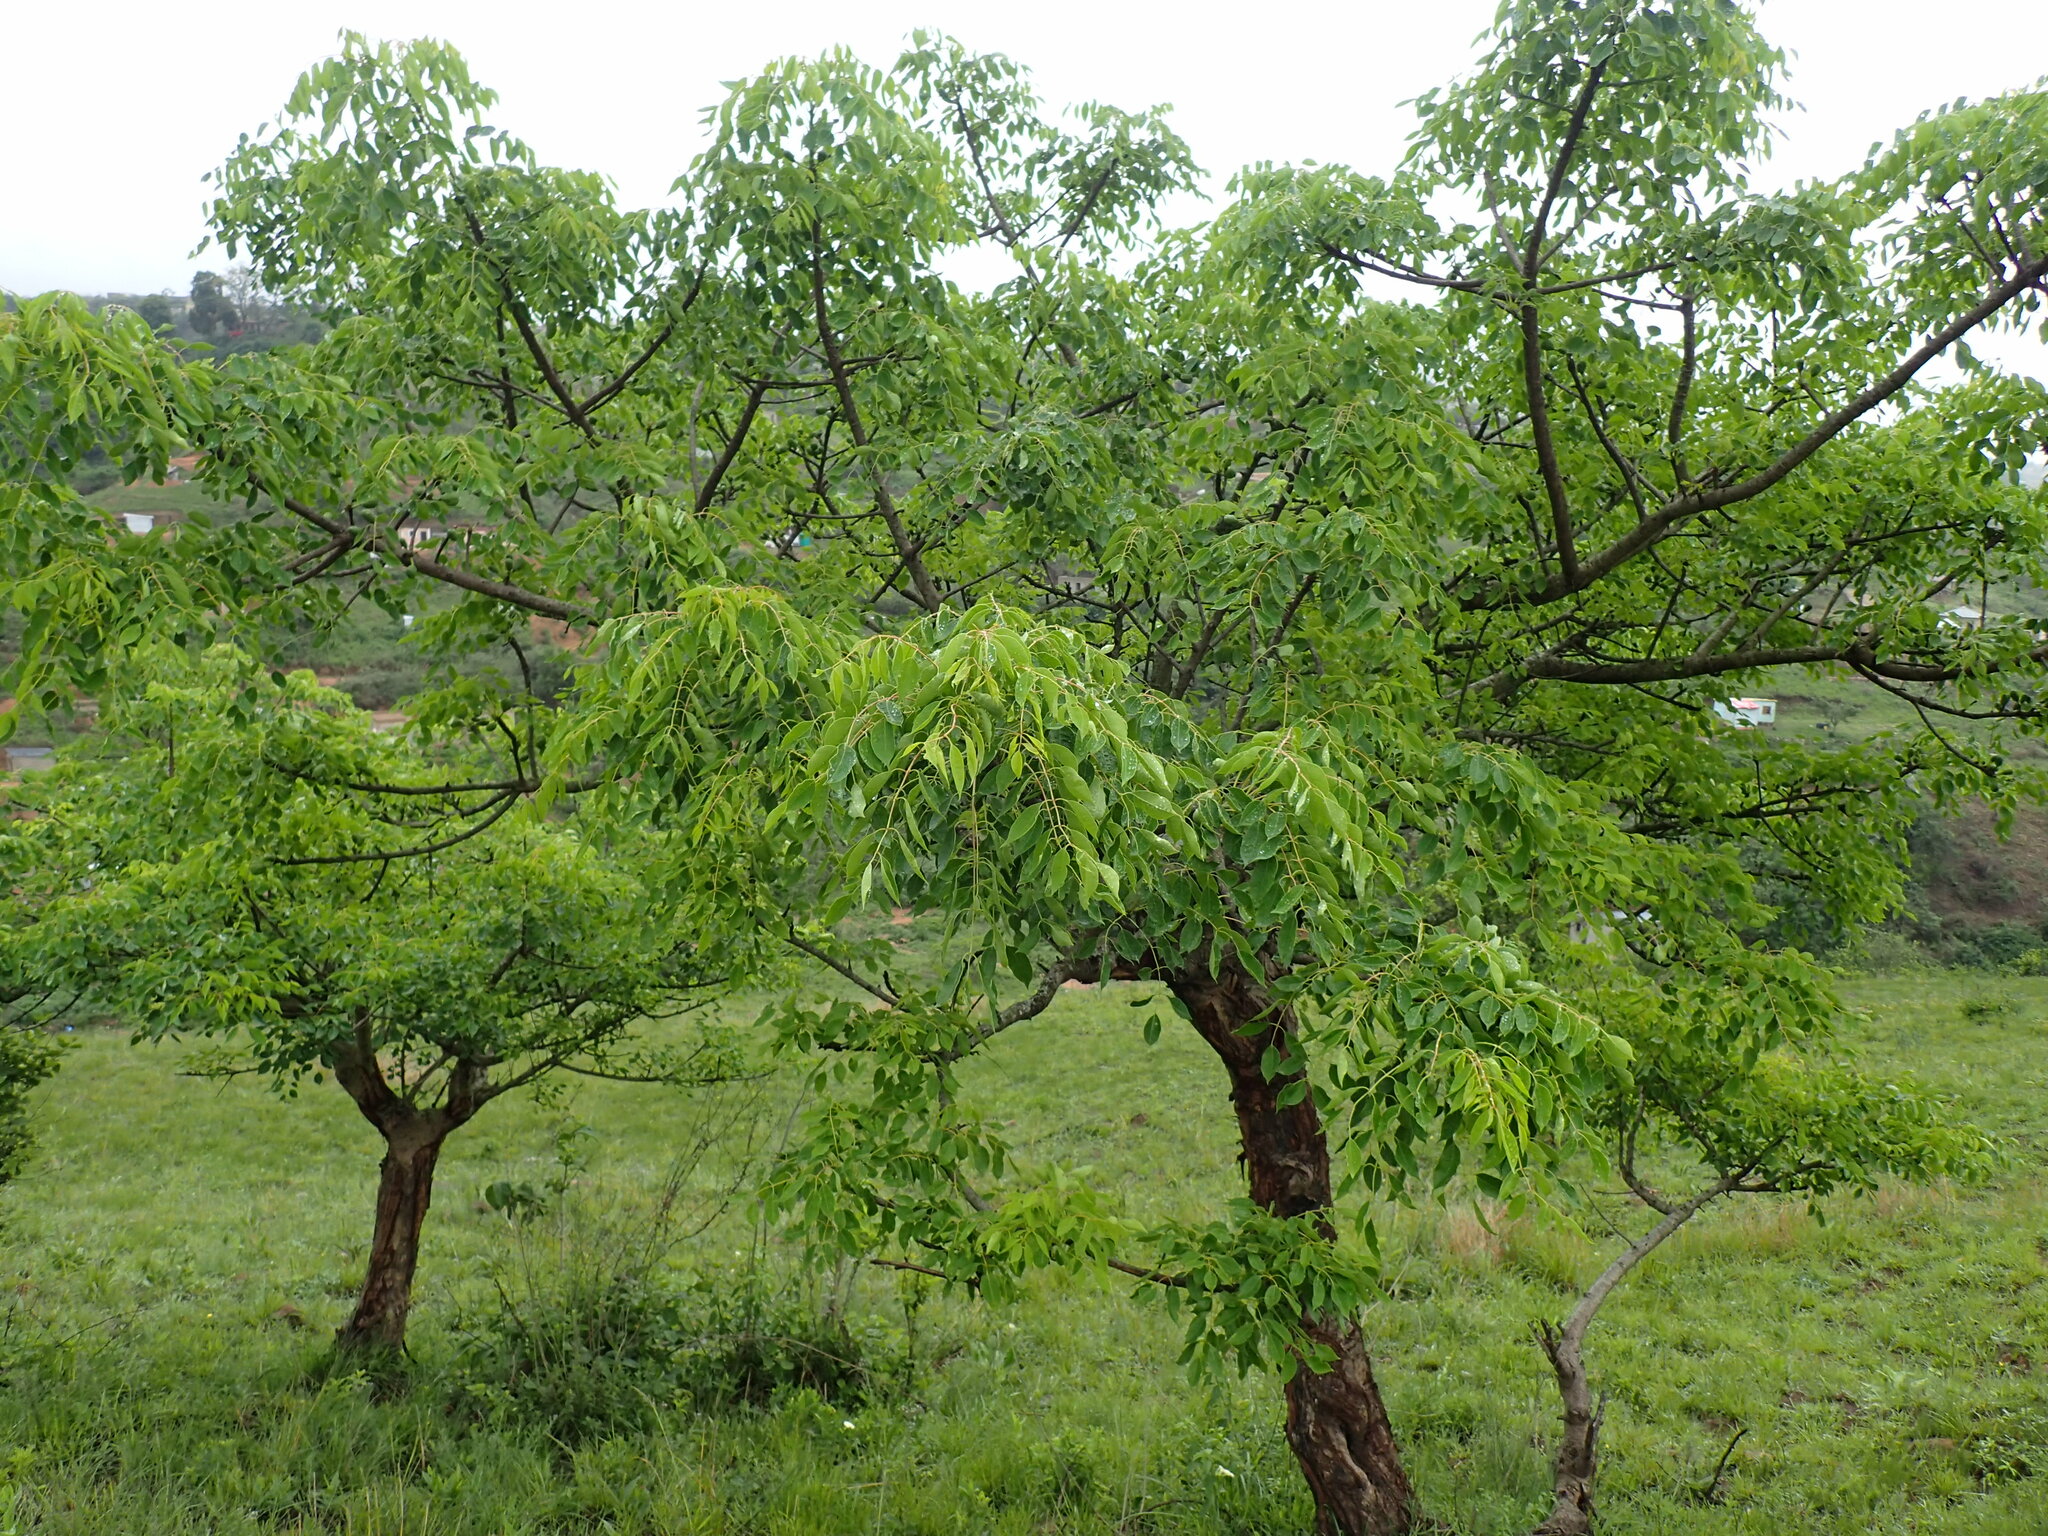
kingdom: Plantae
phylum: Tracheophyta
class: Magnoliopsida
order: Sapindales
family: Anacardiaceae
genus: Sclerocarya
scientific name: Sclerocarya birrea
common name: Marula
